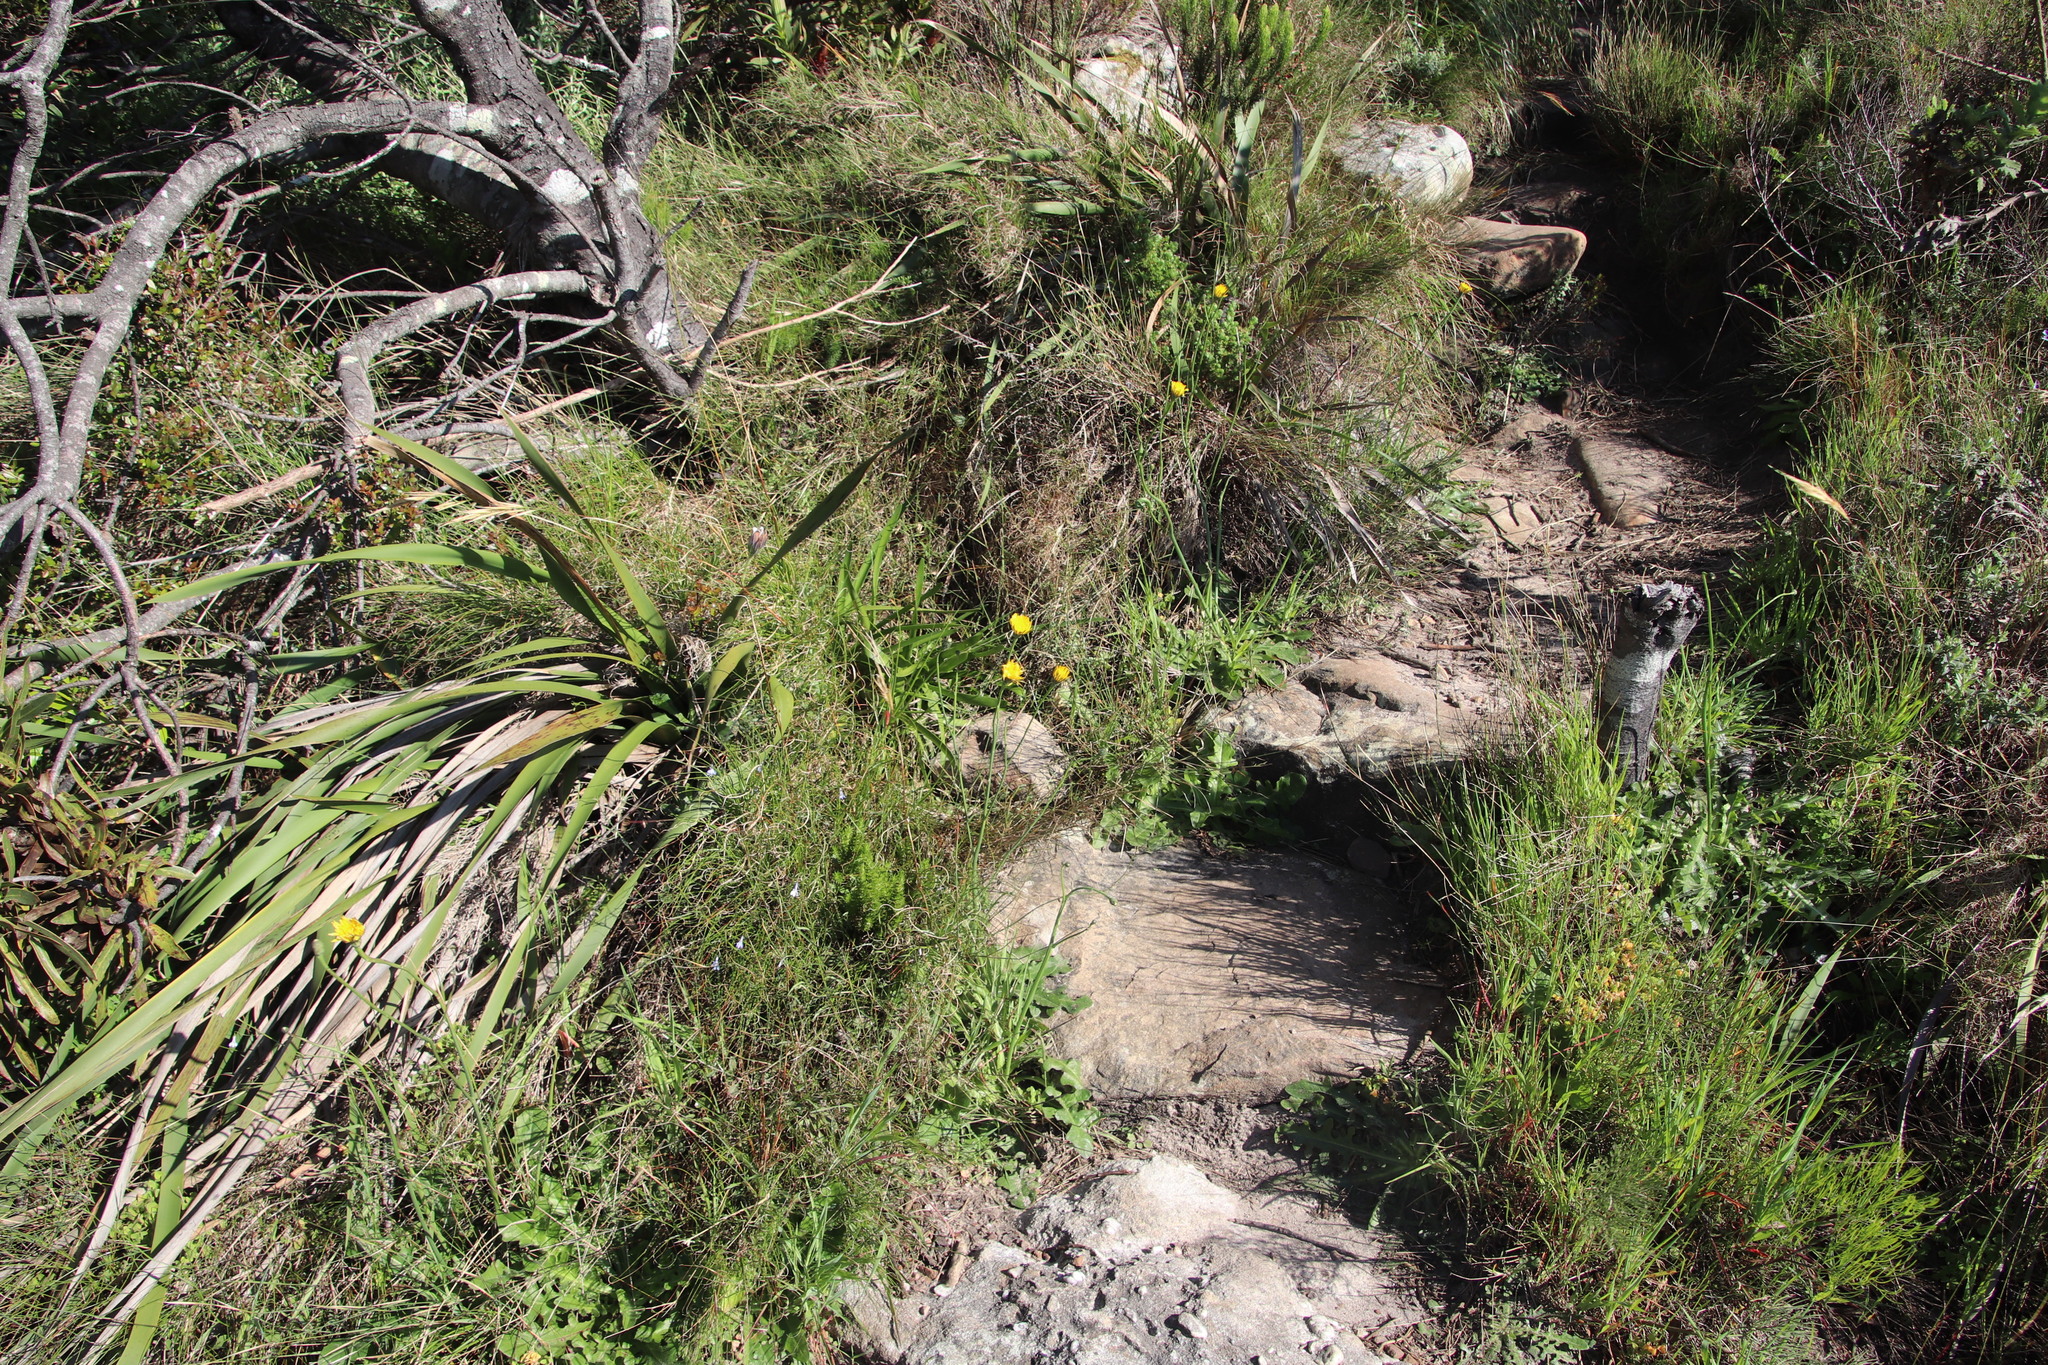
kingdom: Plantae
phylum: Tracheophyta
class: Magnoliopsida
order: Asterales
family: Asteraceae
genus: Hypochaeris
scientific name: Hypochaeris radicata
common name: Flatweed
